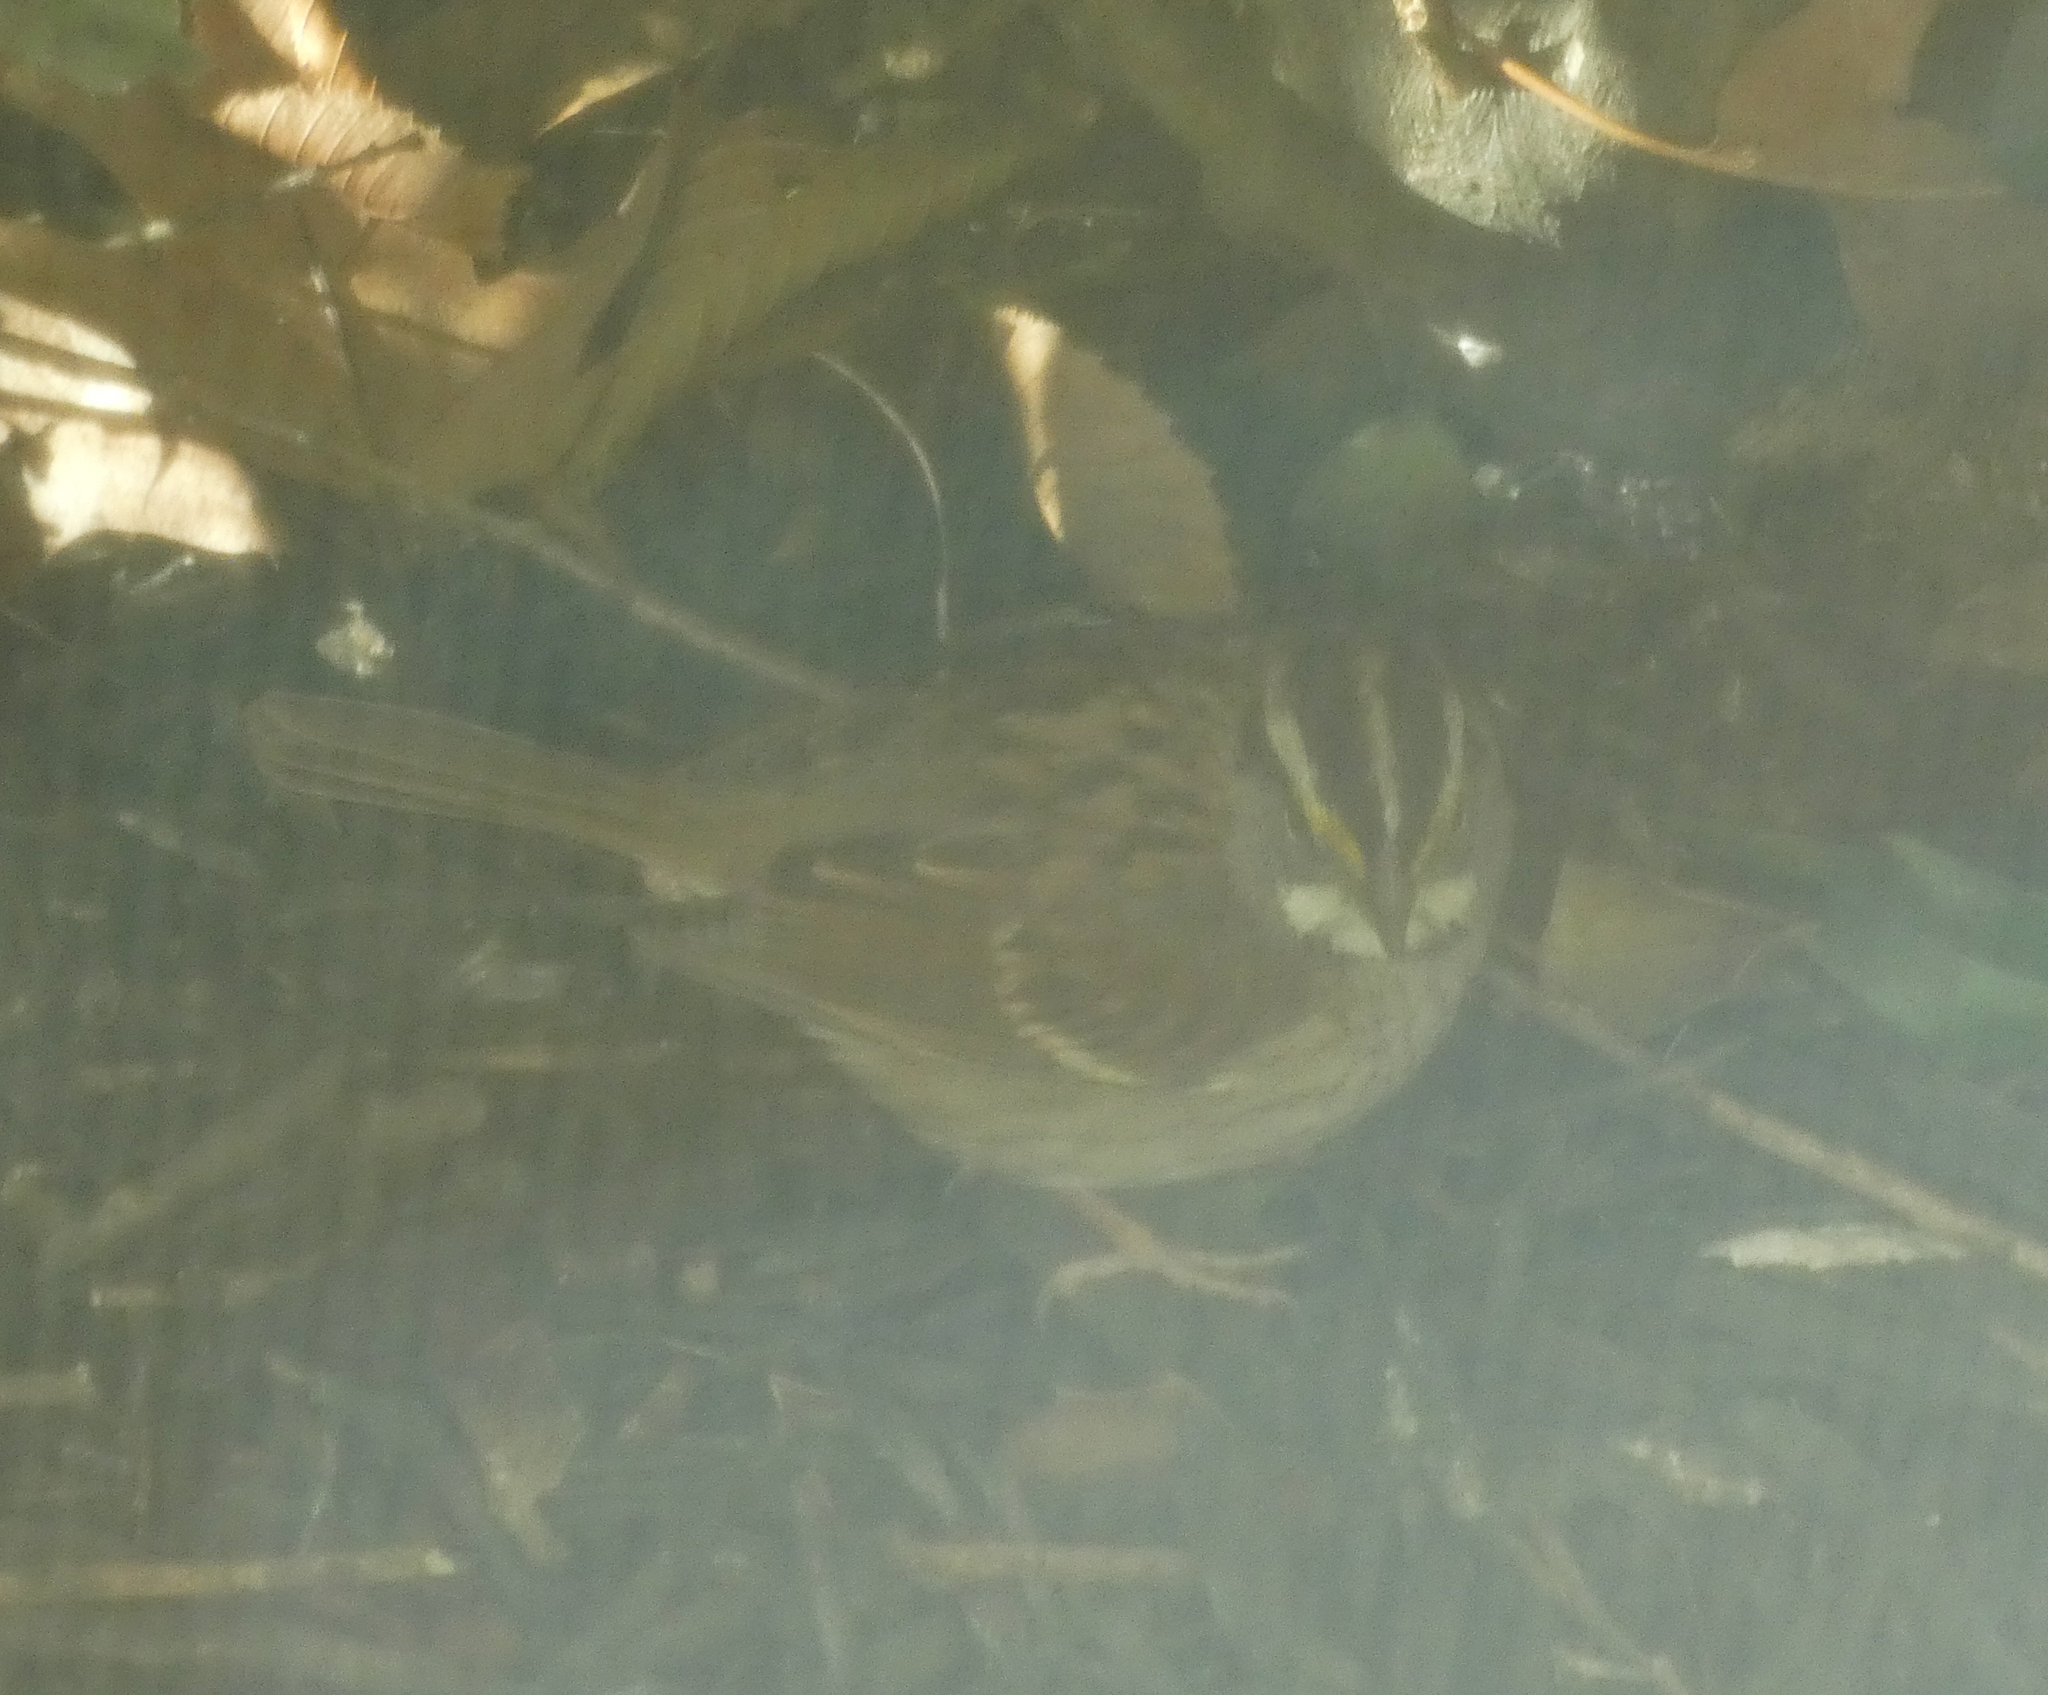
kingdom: Animalia
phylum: Chordata
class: Aves
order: Passeriformes
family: Passerellidae
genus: Zonotrichia
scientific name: Zonotrichia albicollis
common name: White-throated sparrow
